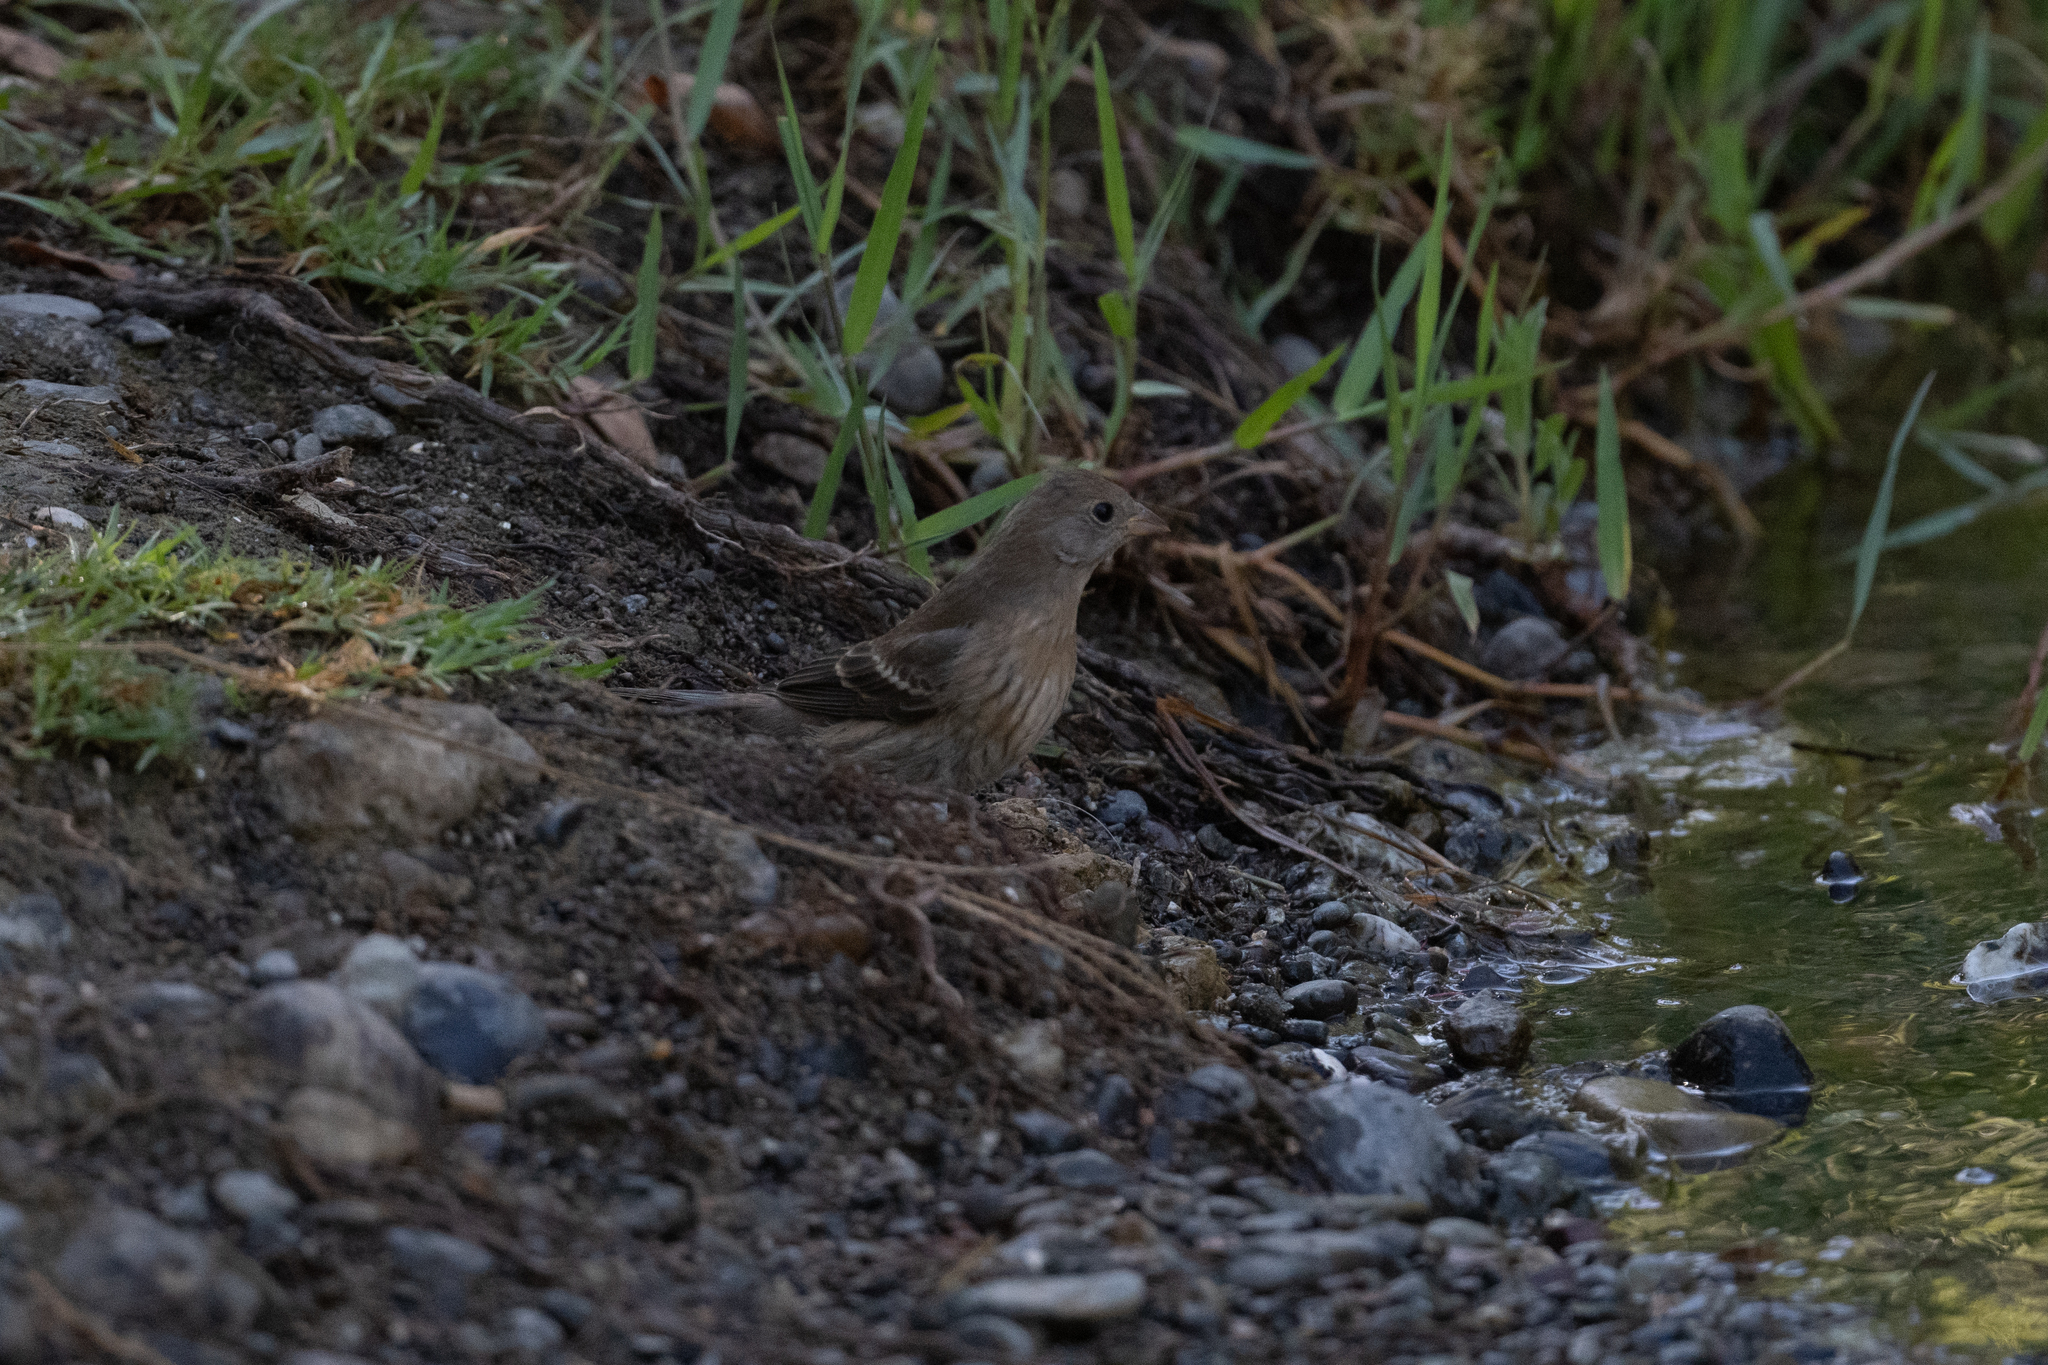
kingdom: Animalia
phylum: Chordata
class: Aves
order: Passeriformes
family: Cardinalidae
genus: Passerina
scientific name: Passerina amoena
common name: Lazuli bunting
